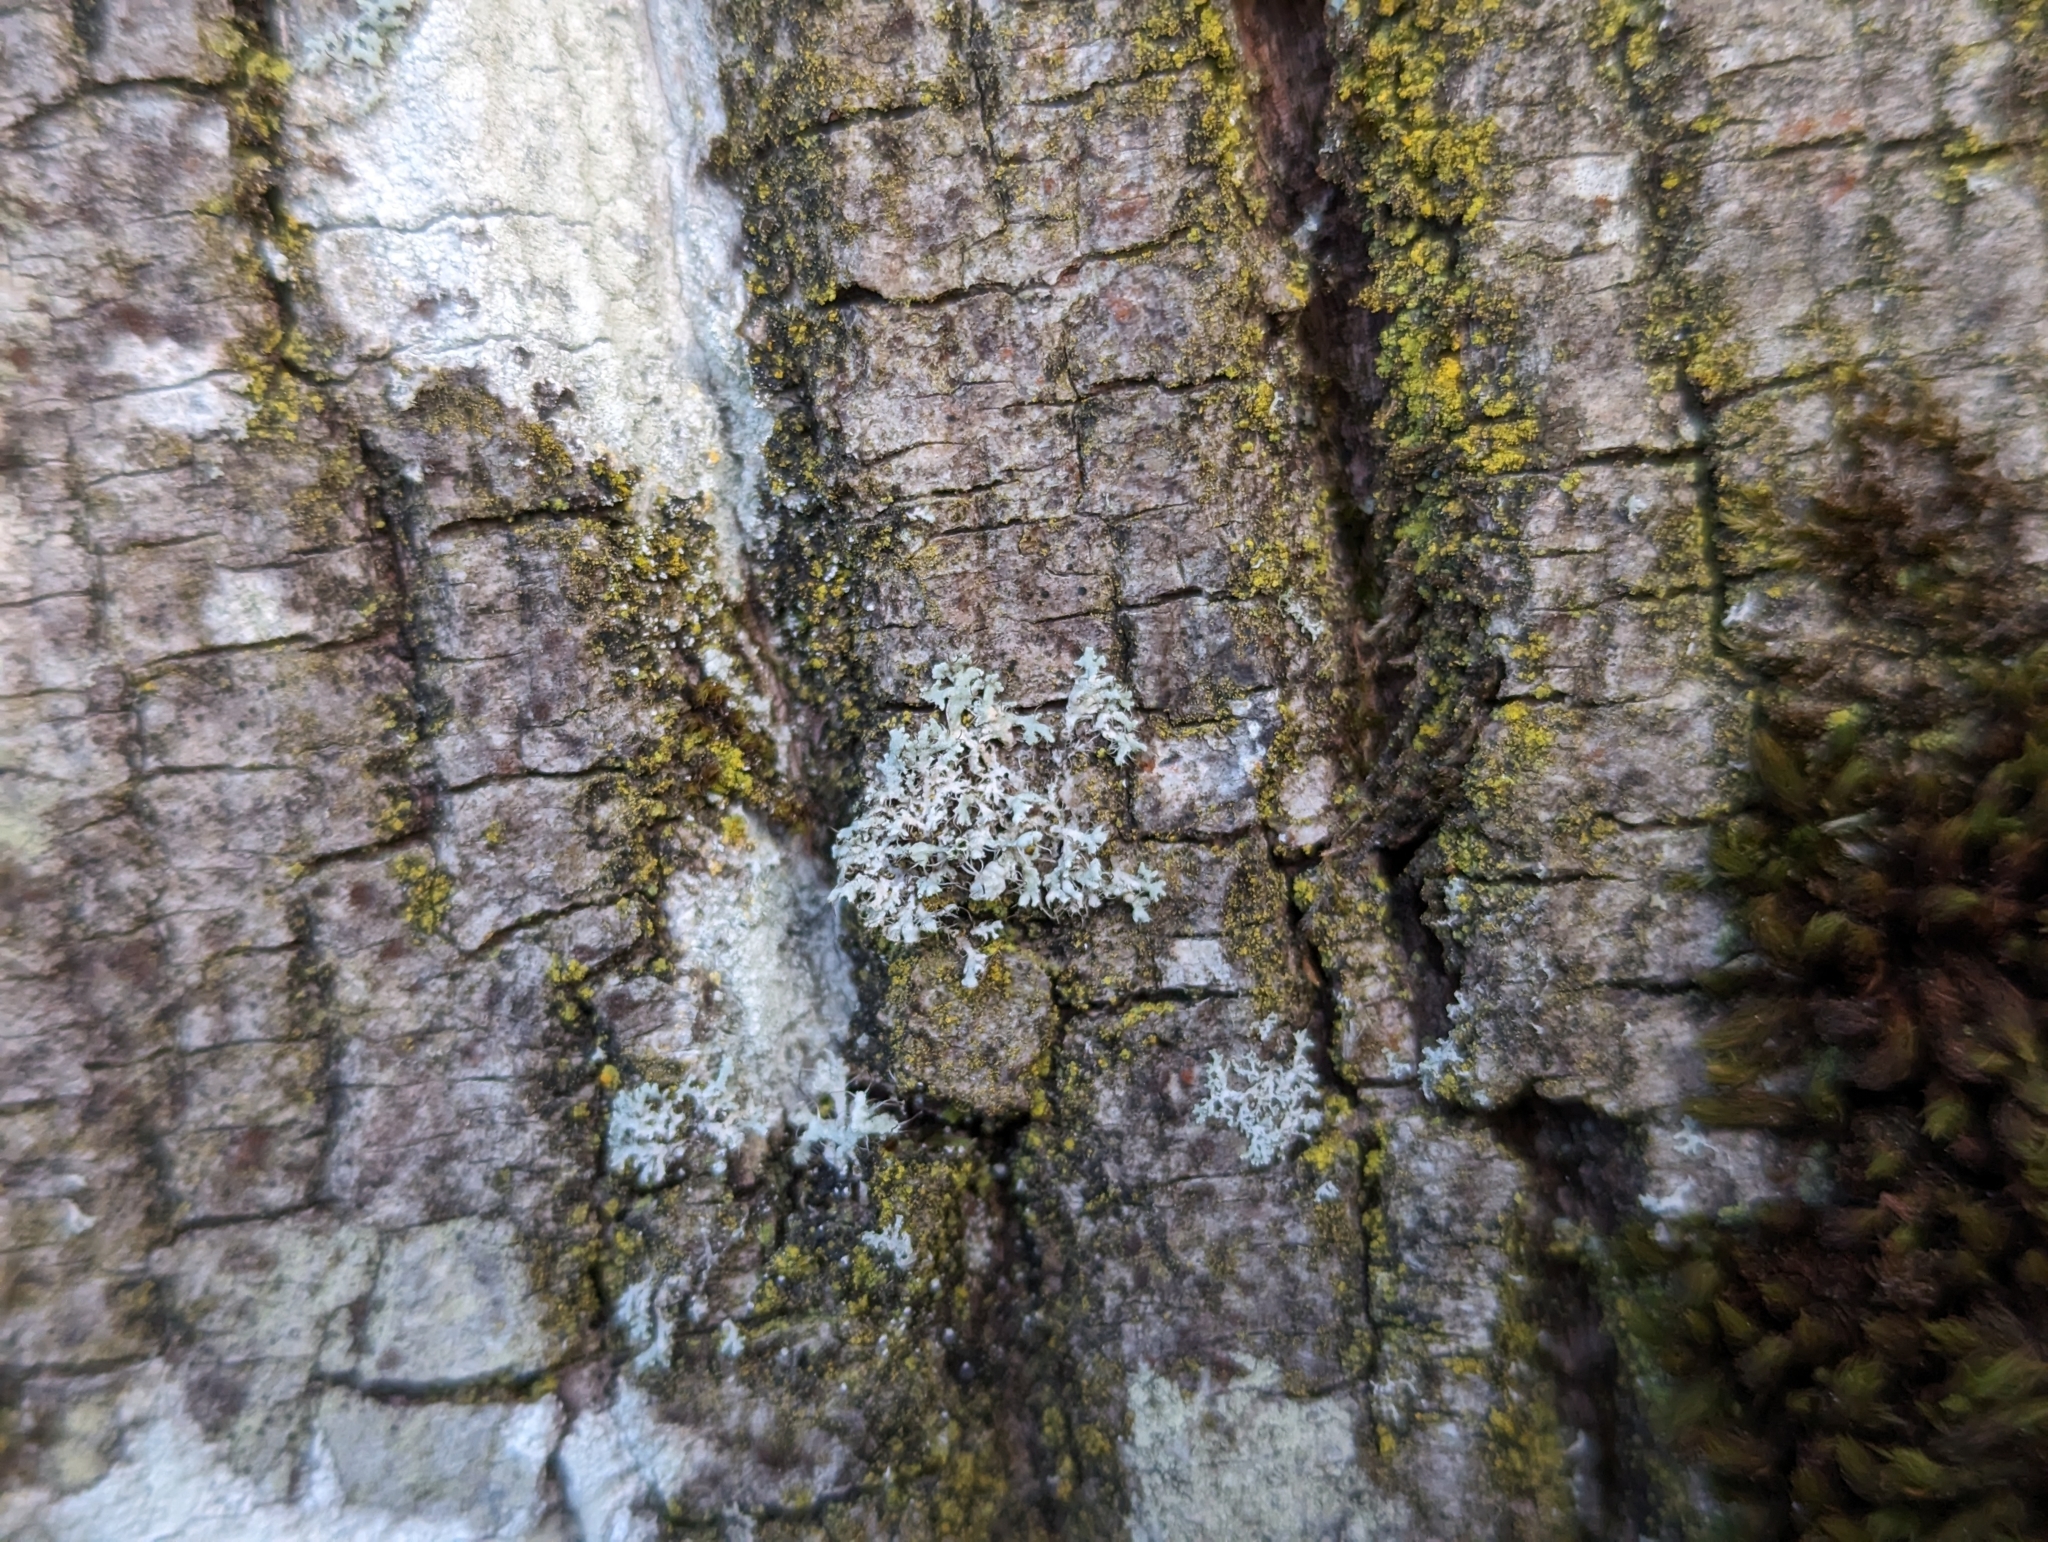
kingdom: Fungi
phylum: Ascomycota
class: Lecanoromycetes
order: Caliciales
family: Physciaceae
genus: Physcia
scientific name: Physcia adscendens
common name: Hooded rosette lichen
